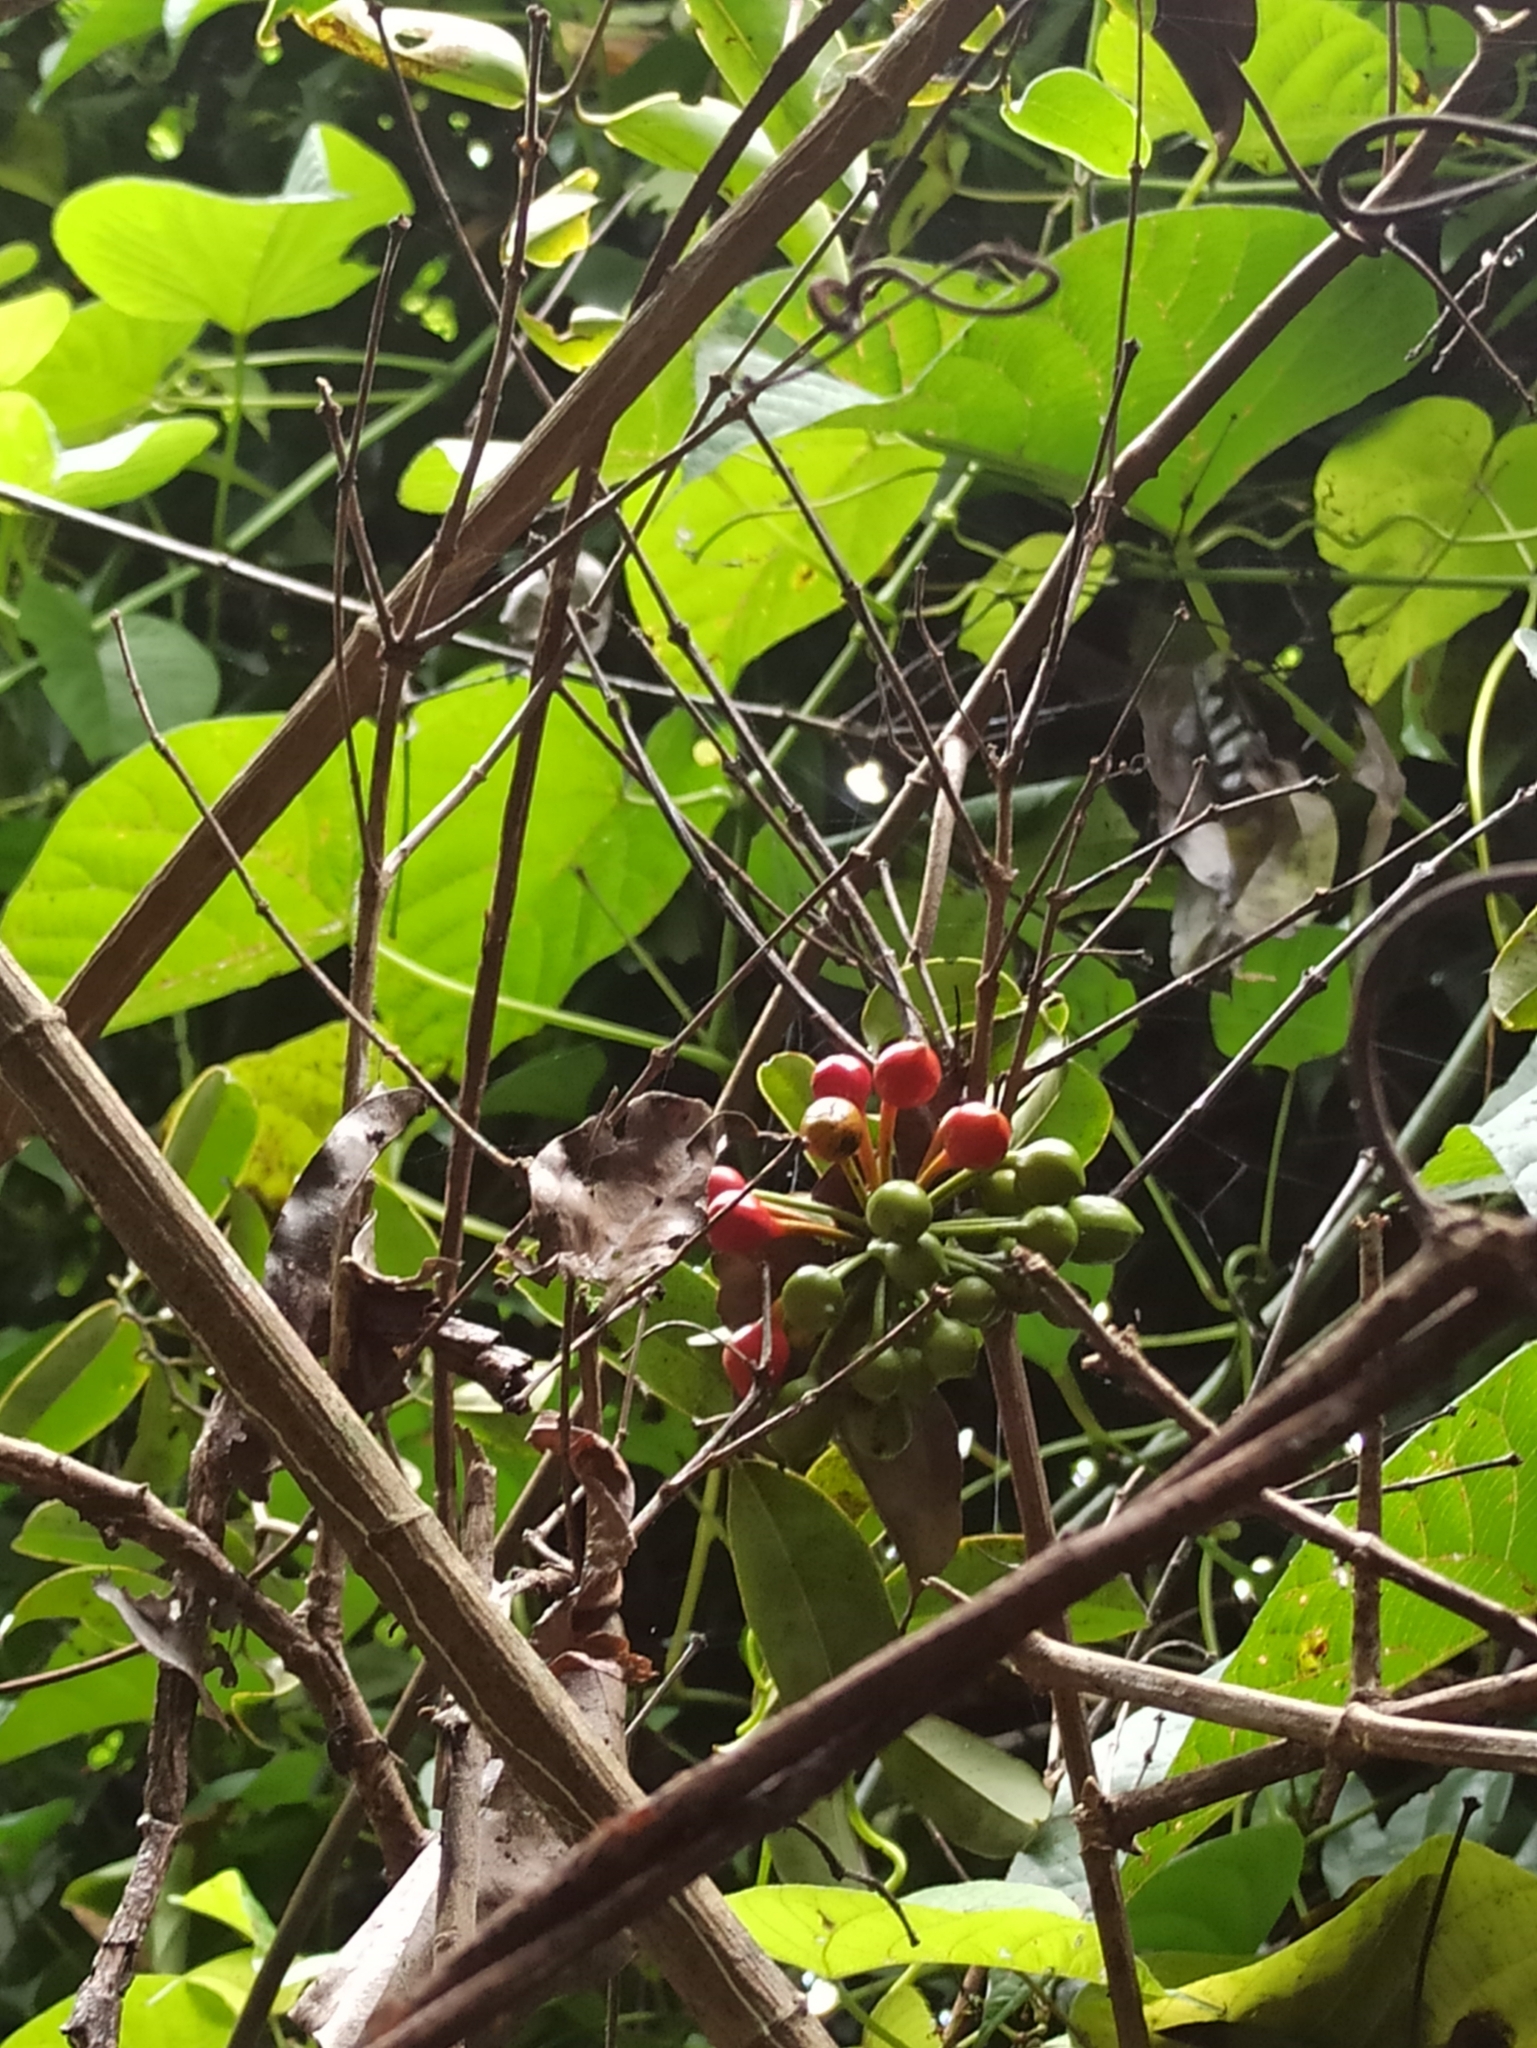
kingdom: Plantae
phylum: Tracheophyta
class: Magnoliopsida
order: Magnoliales
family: Annonaceae
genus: Uvaria
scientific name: Uvaria narum
